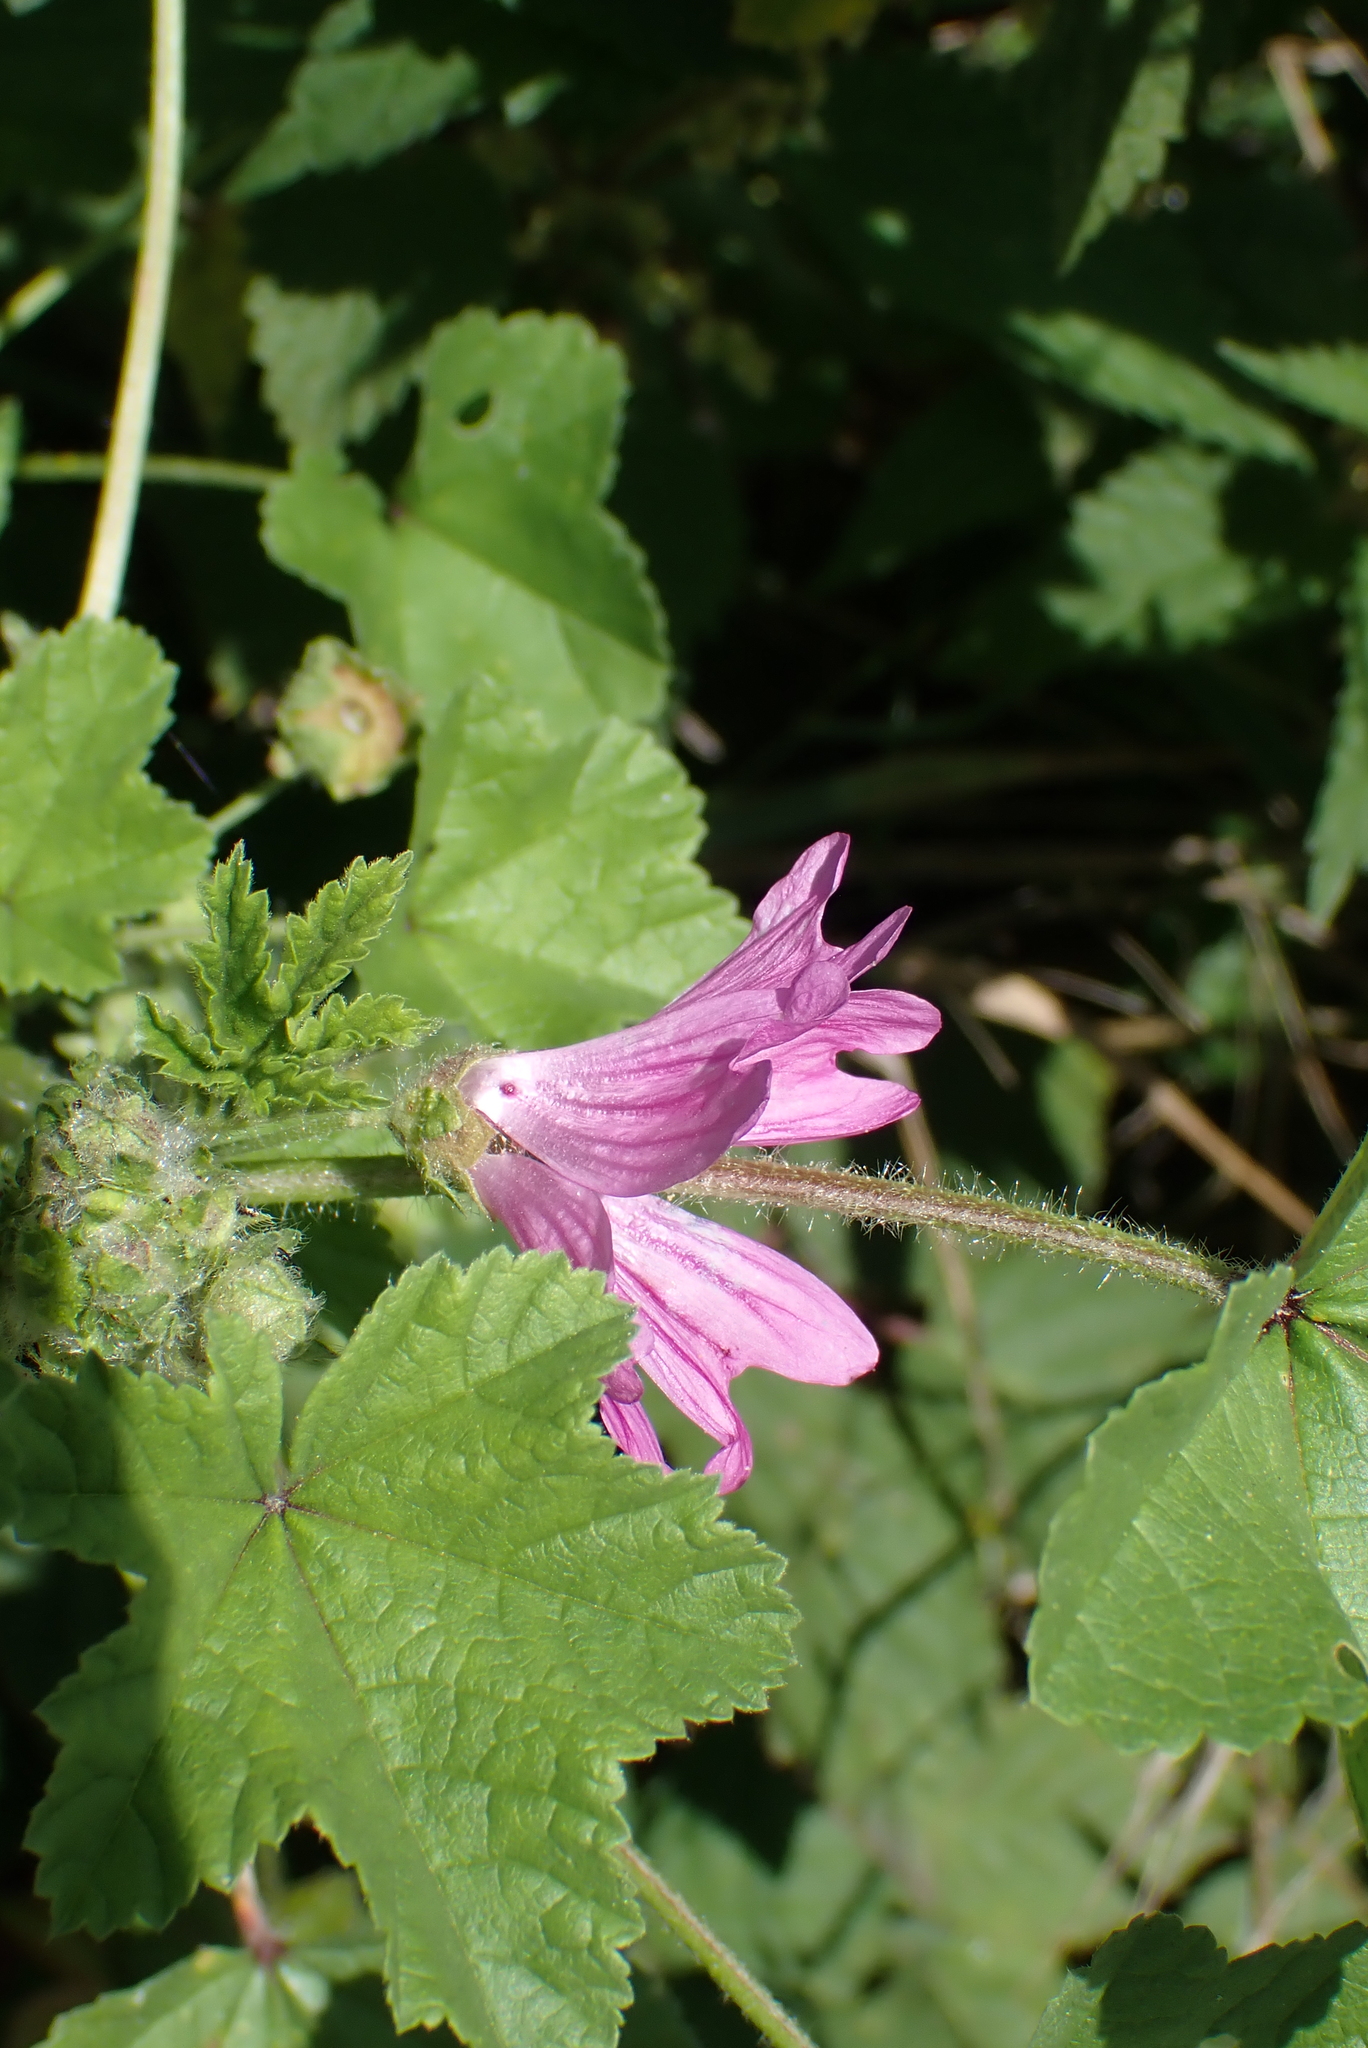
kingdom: Plantae
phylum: Tracheophyta
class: Magnoliopsida
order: Malvales
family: Malvaceae
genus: Malva
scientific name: Malva sylvestris
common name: Common mallow
